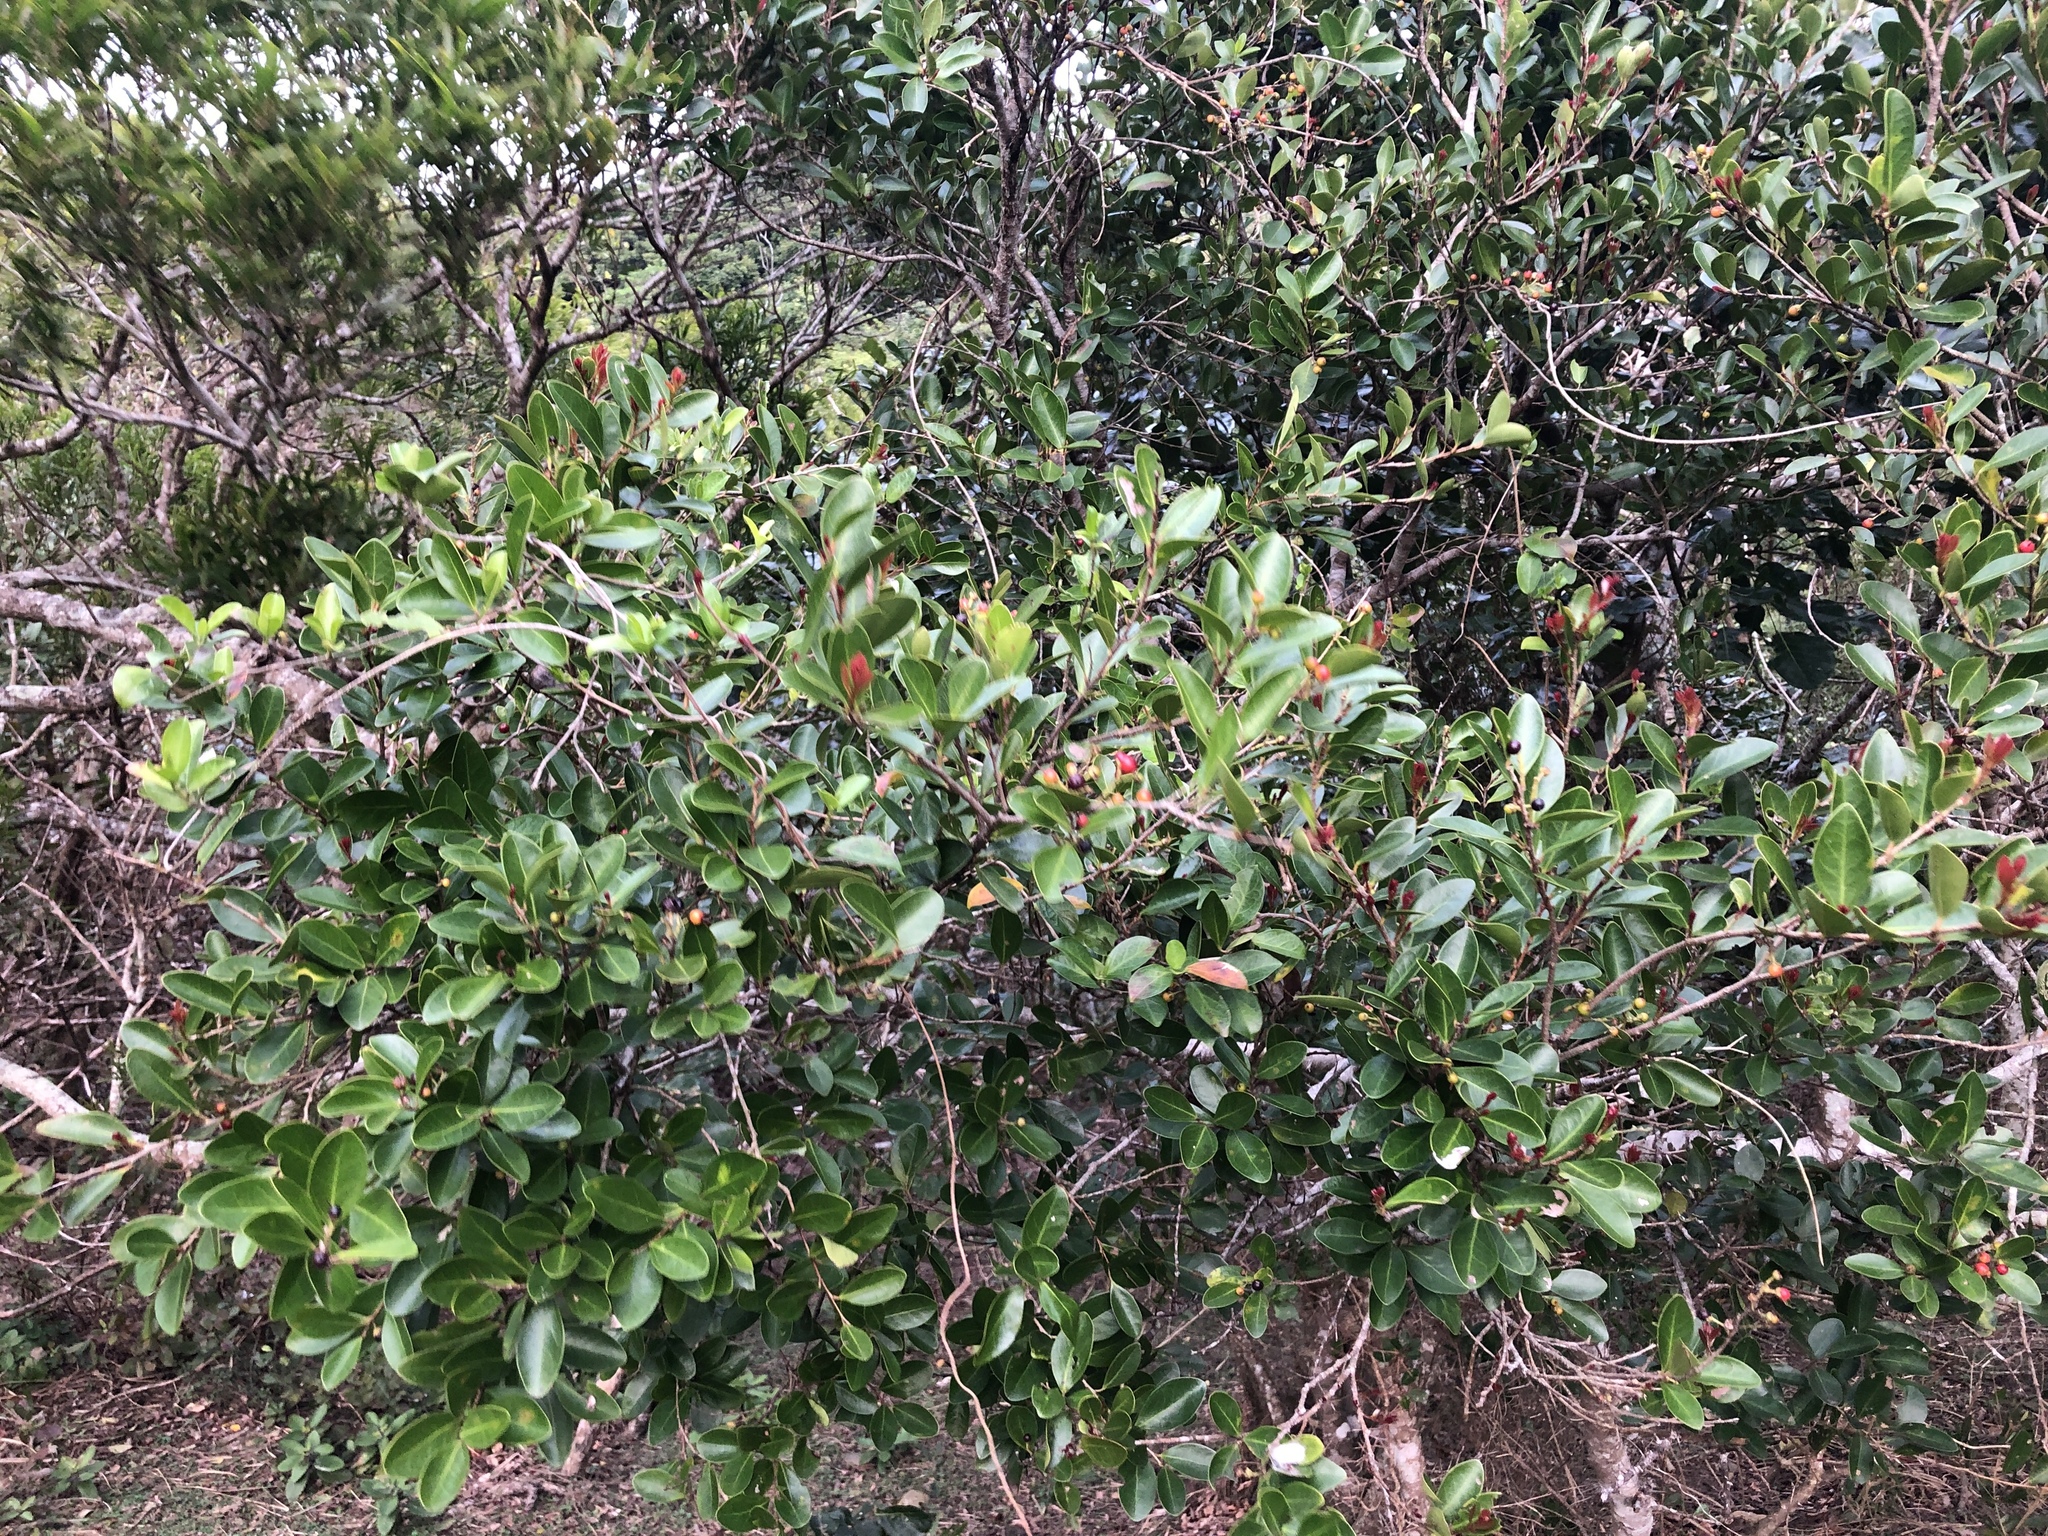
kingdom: Plantae
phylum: Tracheophyta
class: Magnoliopsida
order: Malpighiales
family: Salicaceae
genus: Scolopia
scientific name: Scolopia oldhamii
